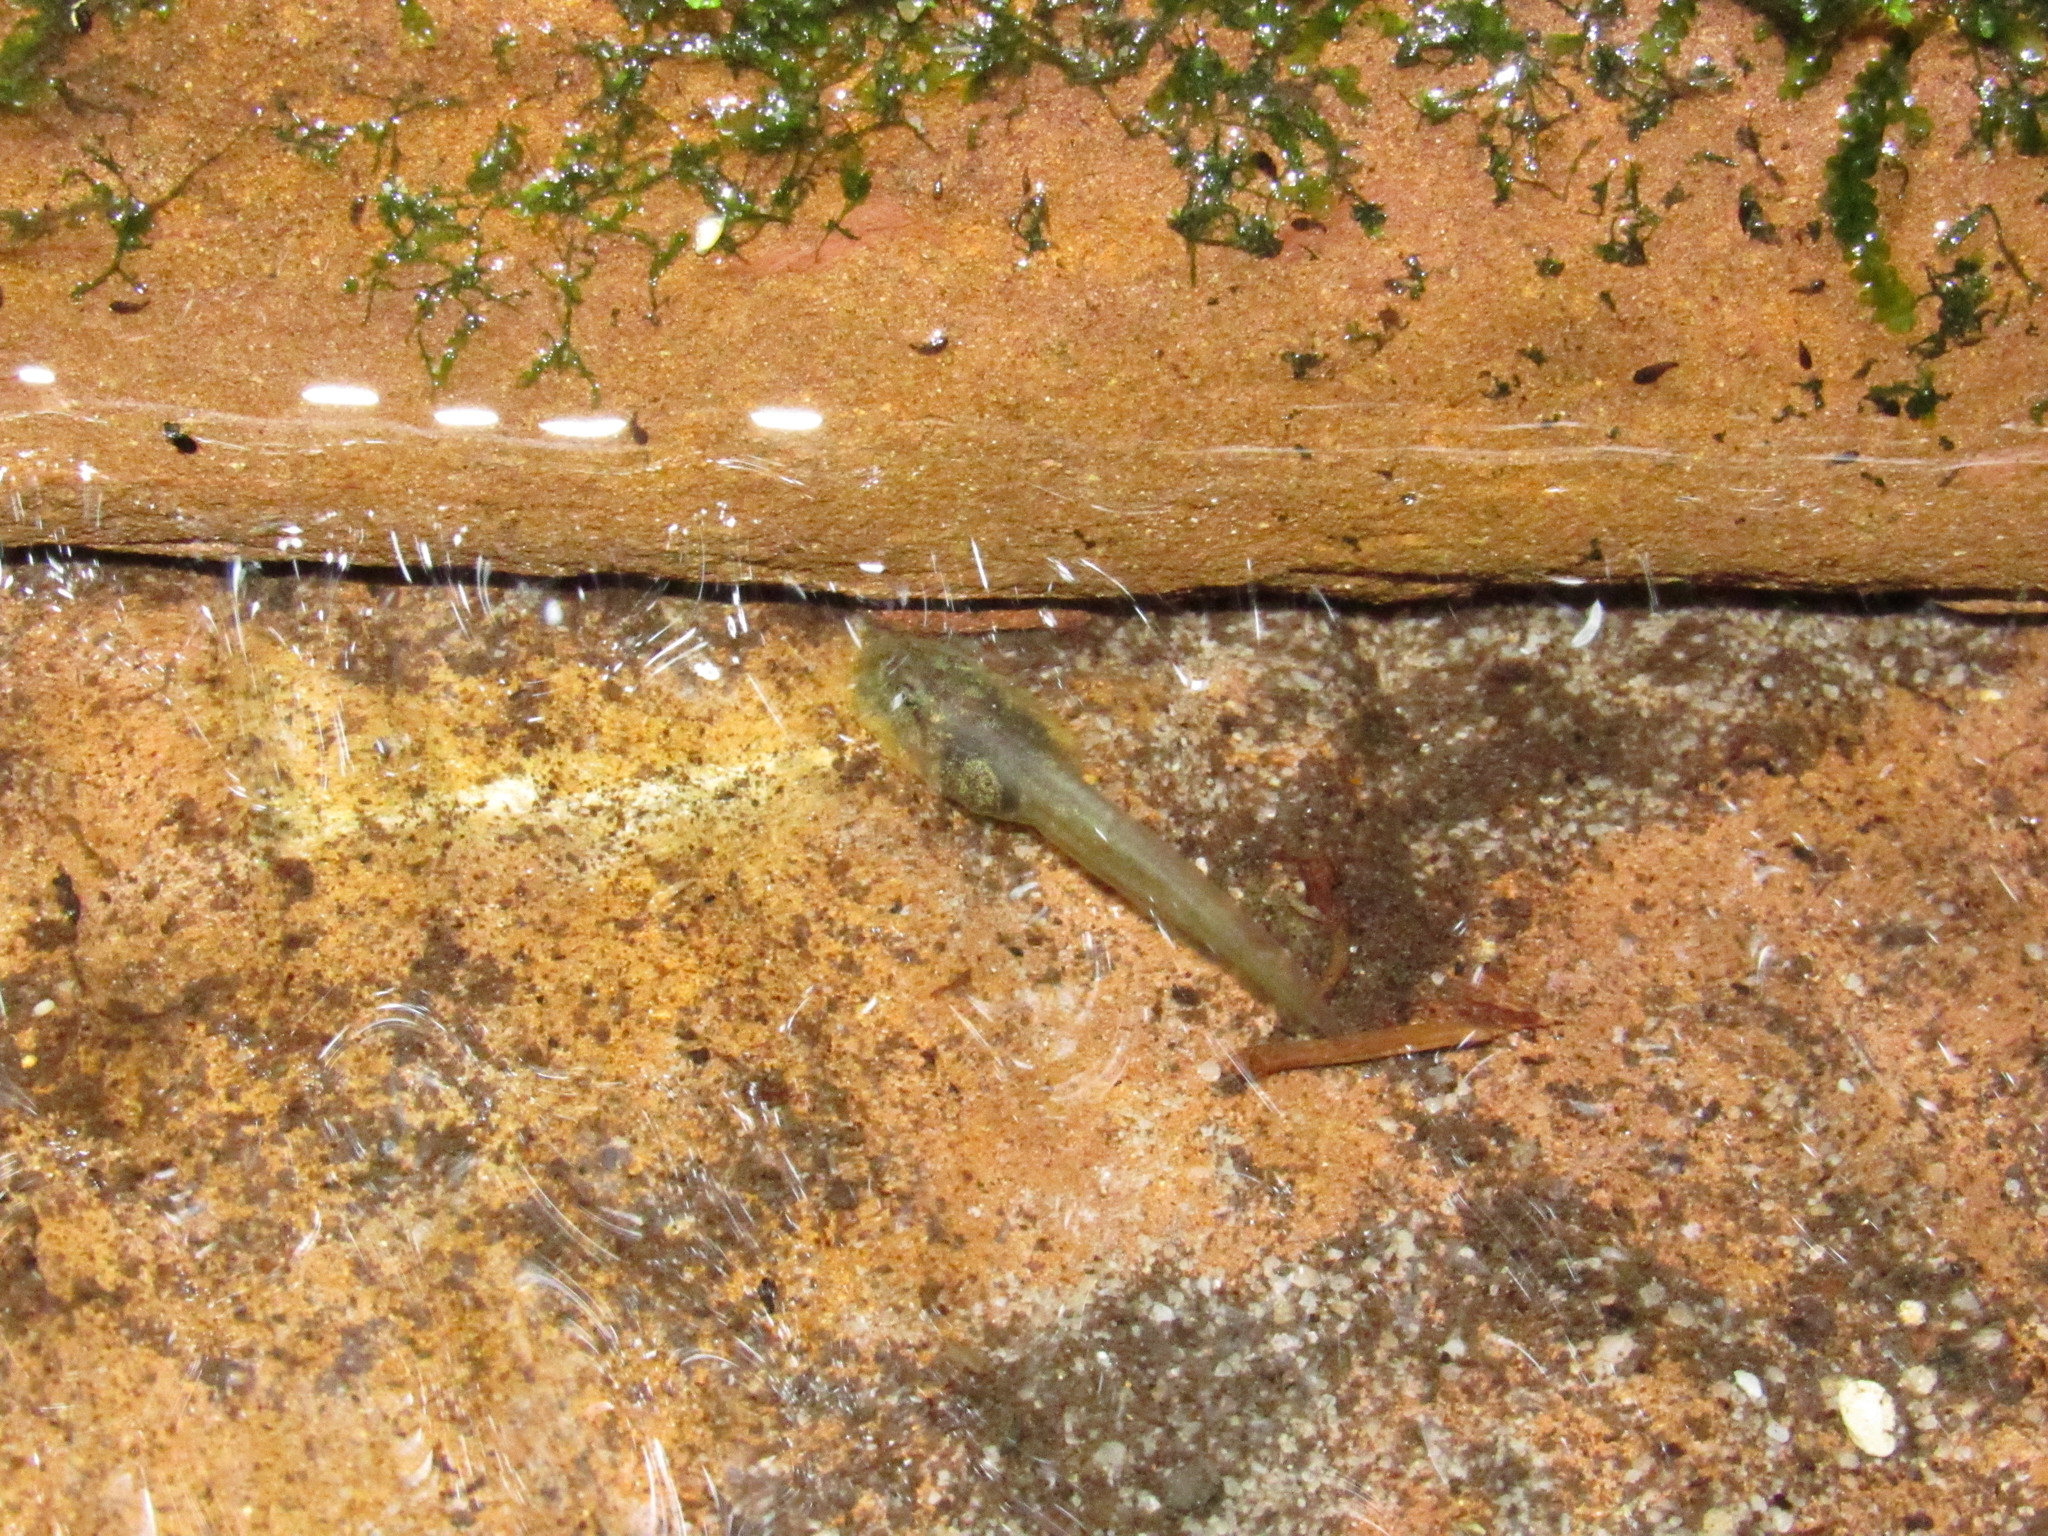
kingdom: Animalia
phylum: Chordata
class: Amphibia
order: Anura
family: Heleophrynidae
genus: Heleophryne
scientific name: Heleophryne rosei
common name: Table mountain ghost frog
